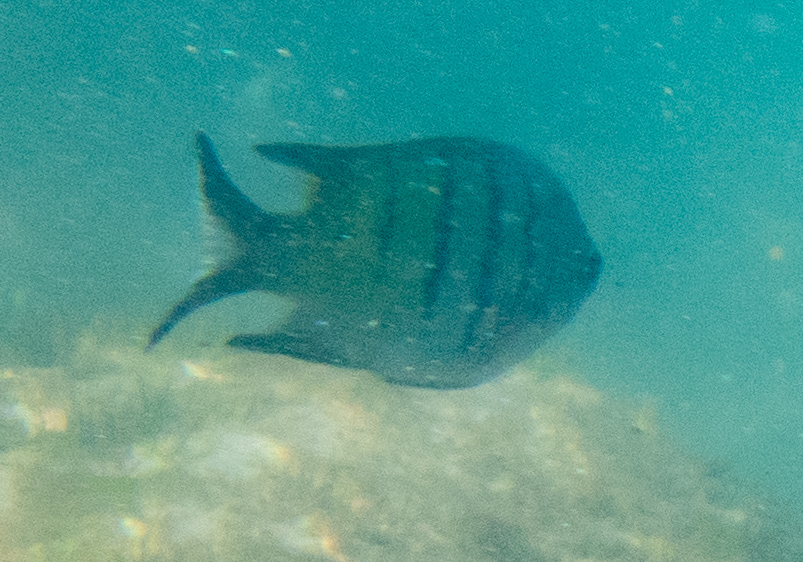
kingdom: Animalia
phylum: Chordata
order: Perciformes
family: Pomacentridae
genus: Abudefduf
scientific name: Abudefduf whitleyi
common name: Whitley's seargent
